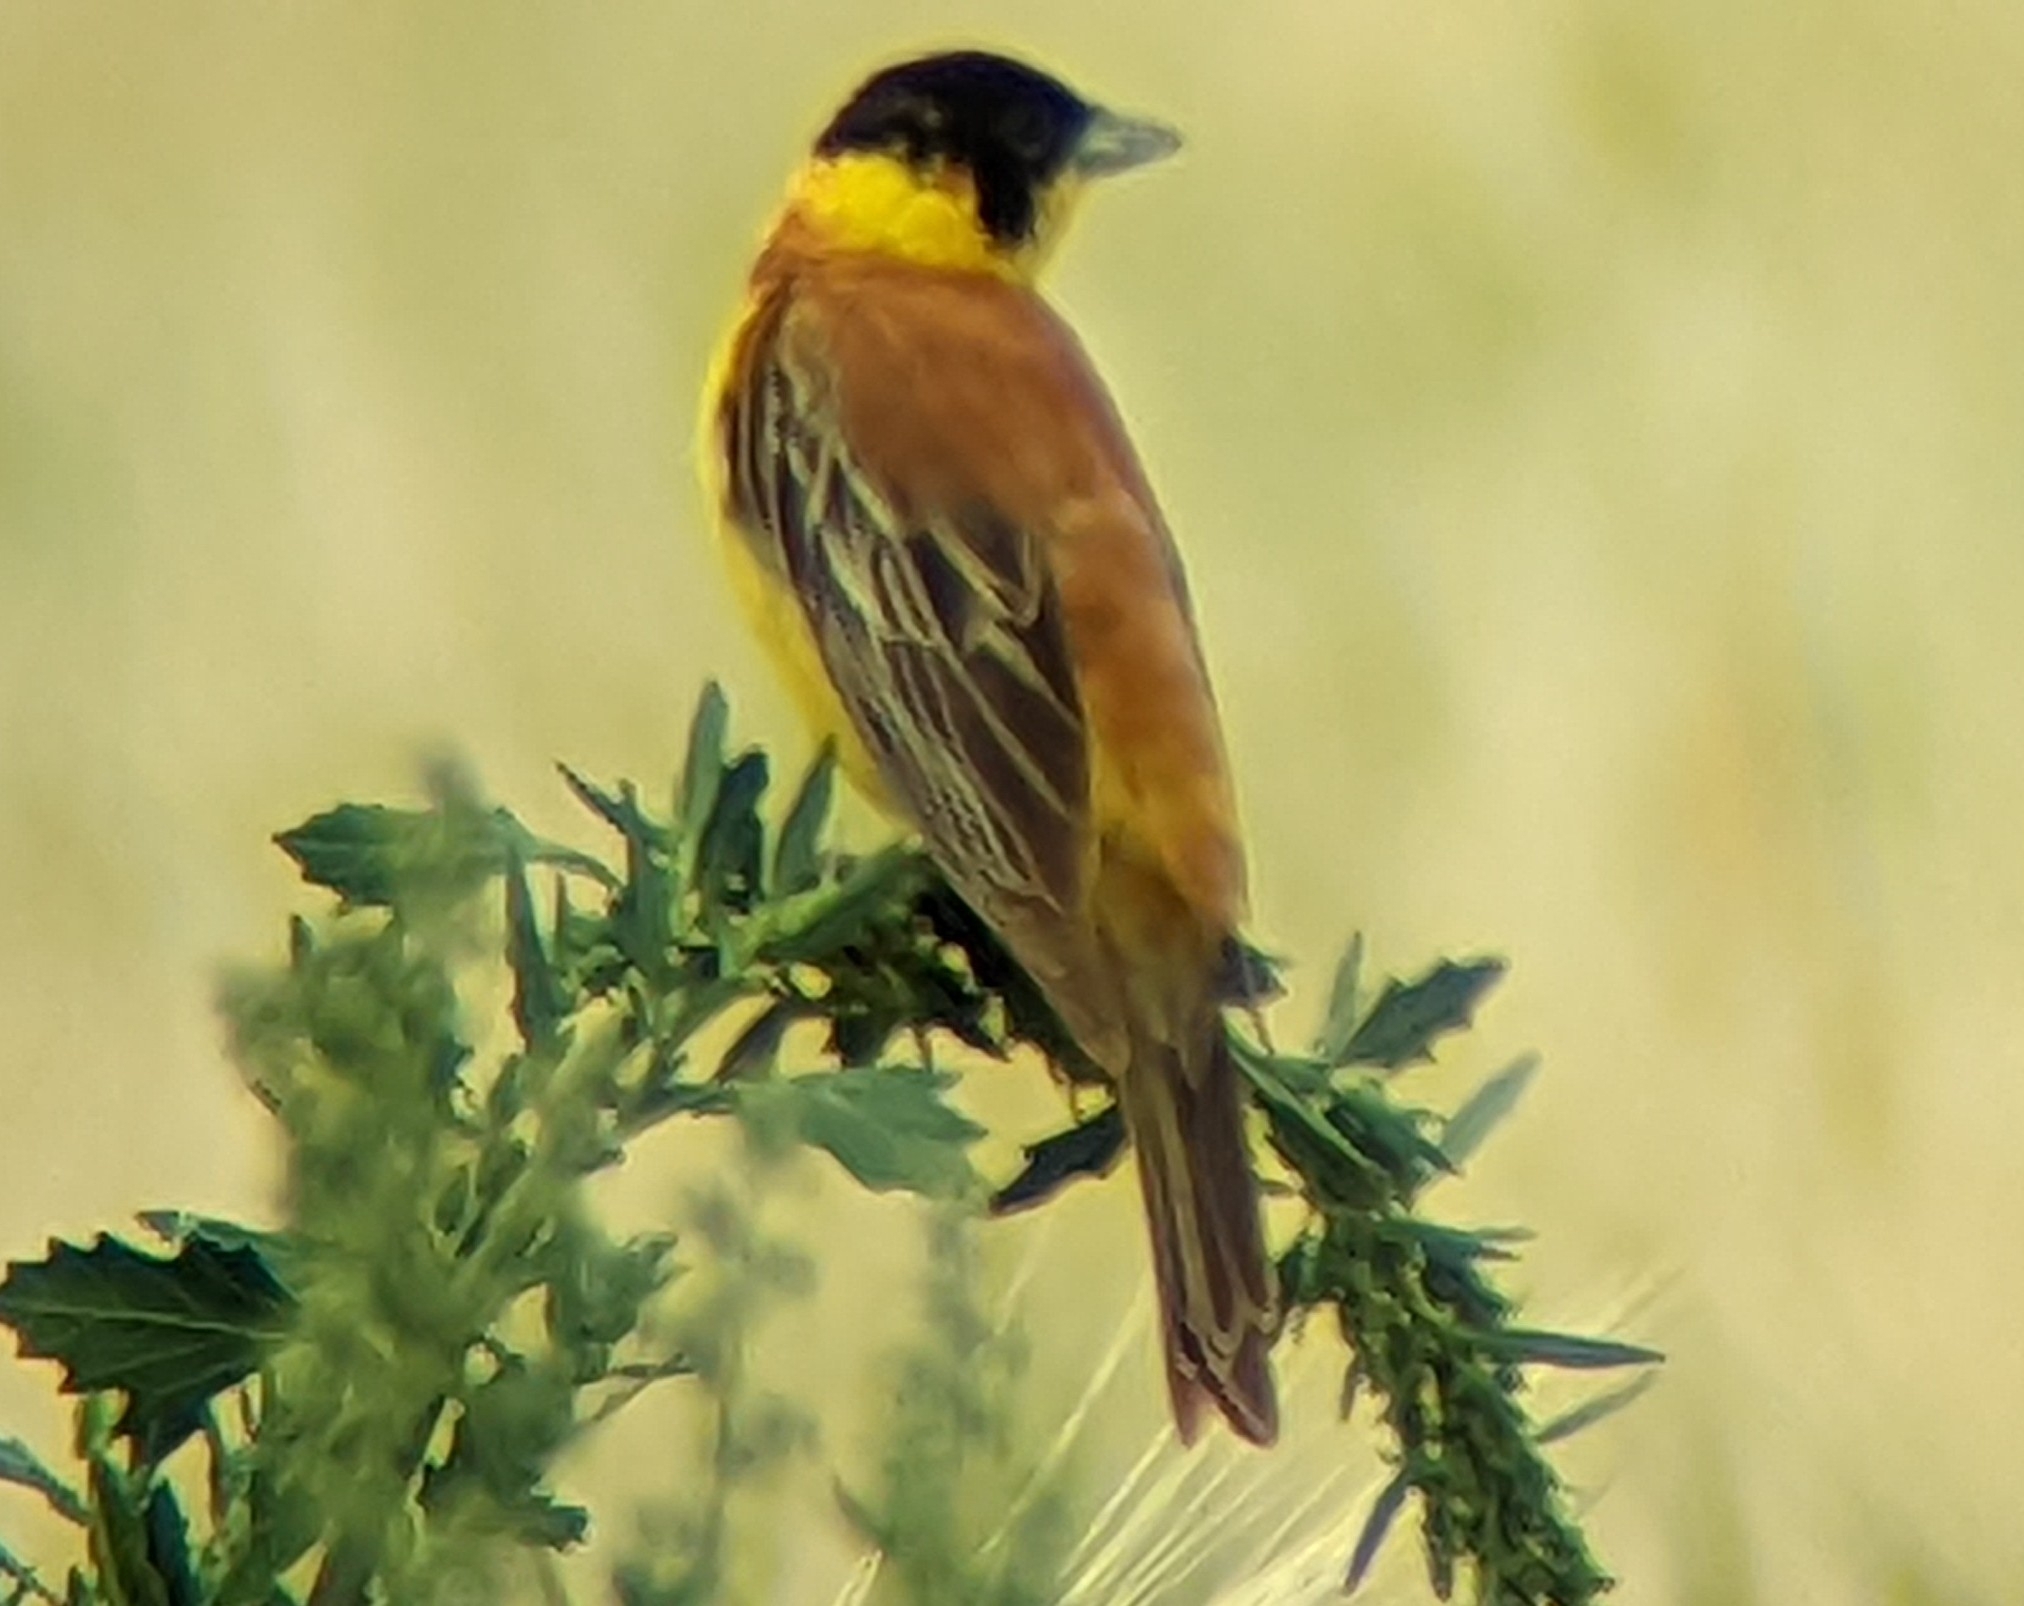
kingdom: Animalia
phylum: Chordata
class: Aves
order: Passeriformes
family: Emberizidae
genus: Emberiza
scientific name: Emberiza melanocephala
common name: Black-headed bunting
